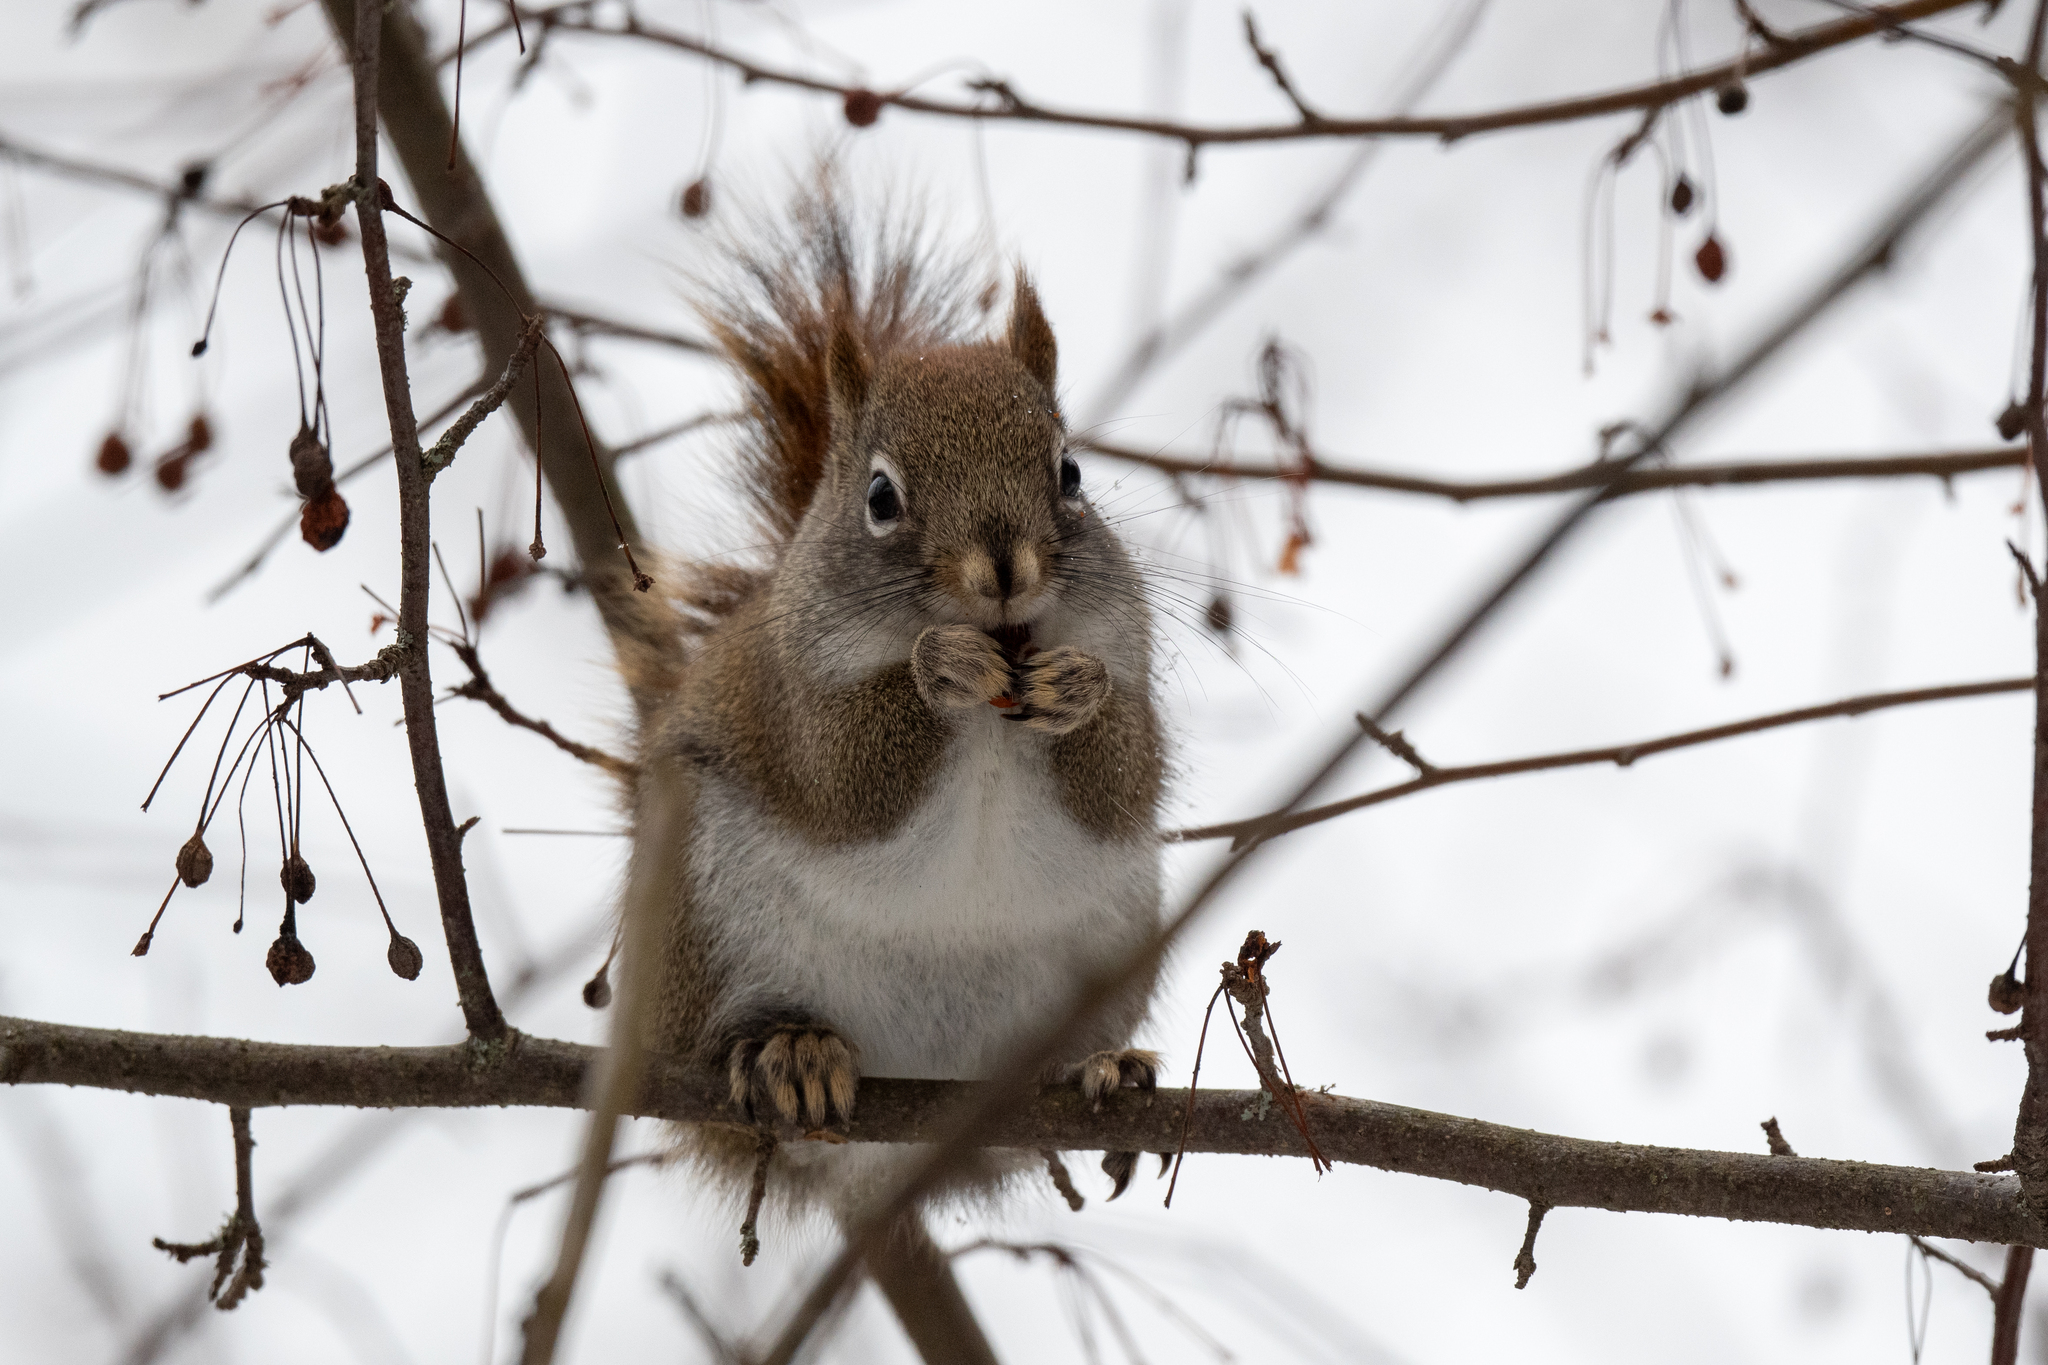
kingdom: Animalia
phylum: Chordata
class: Mammalia
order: Rodentia
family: Sciuridae
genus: Tamiasciurus
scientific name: Tamiasciurus hudsonicus
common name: Red squirrel
